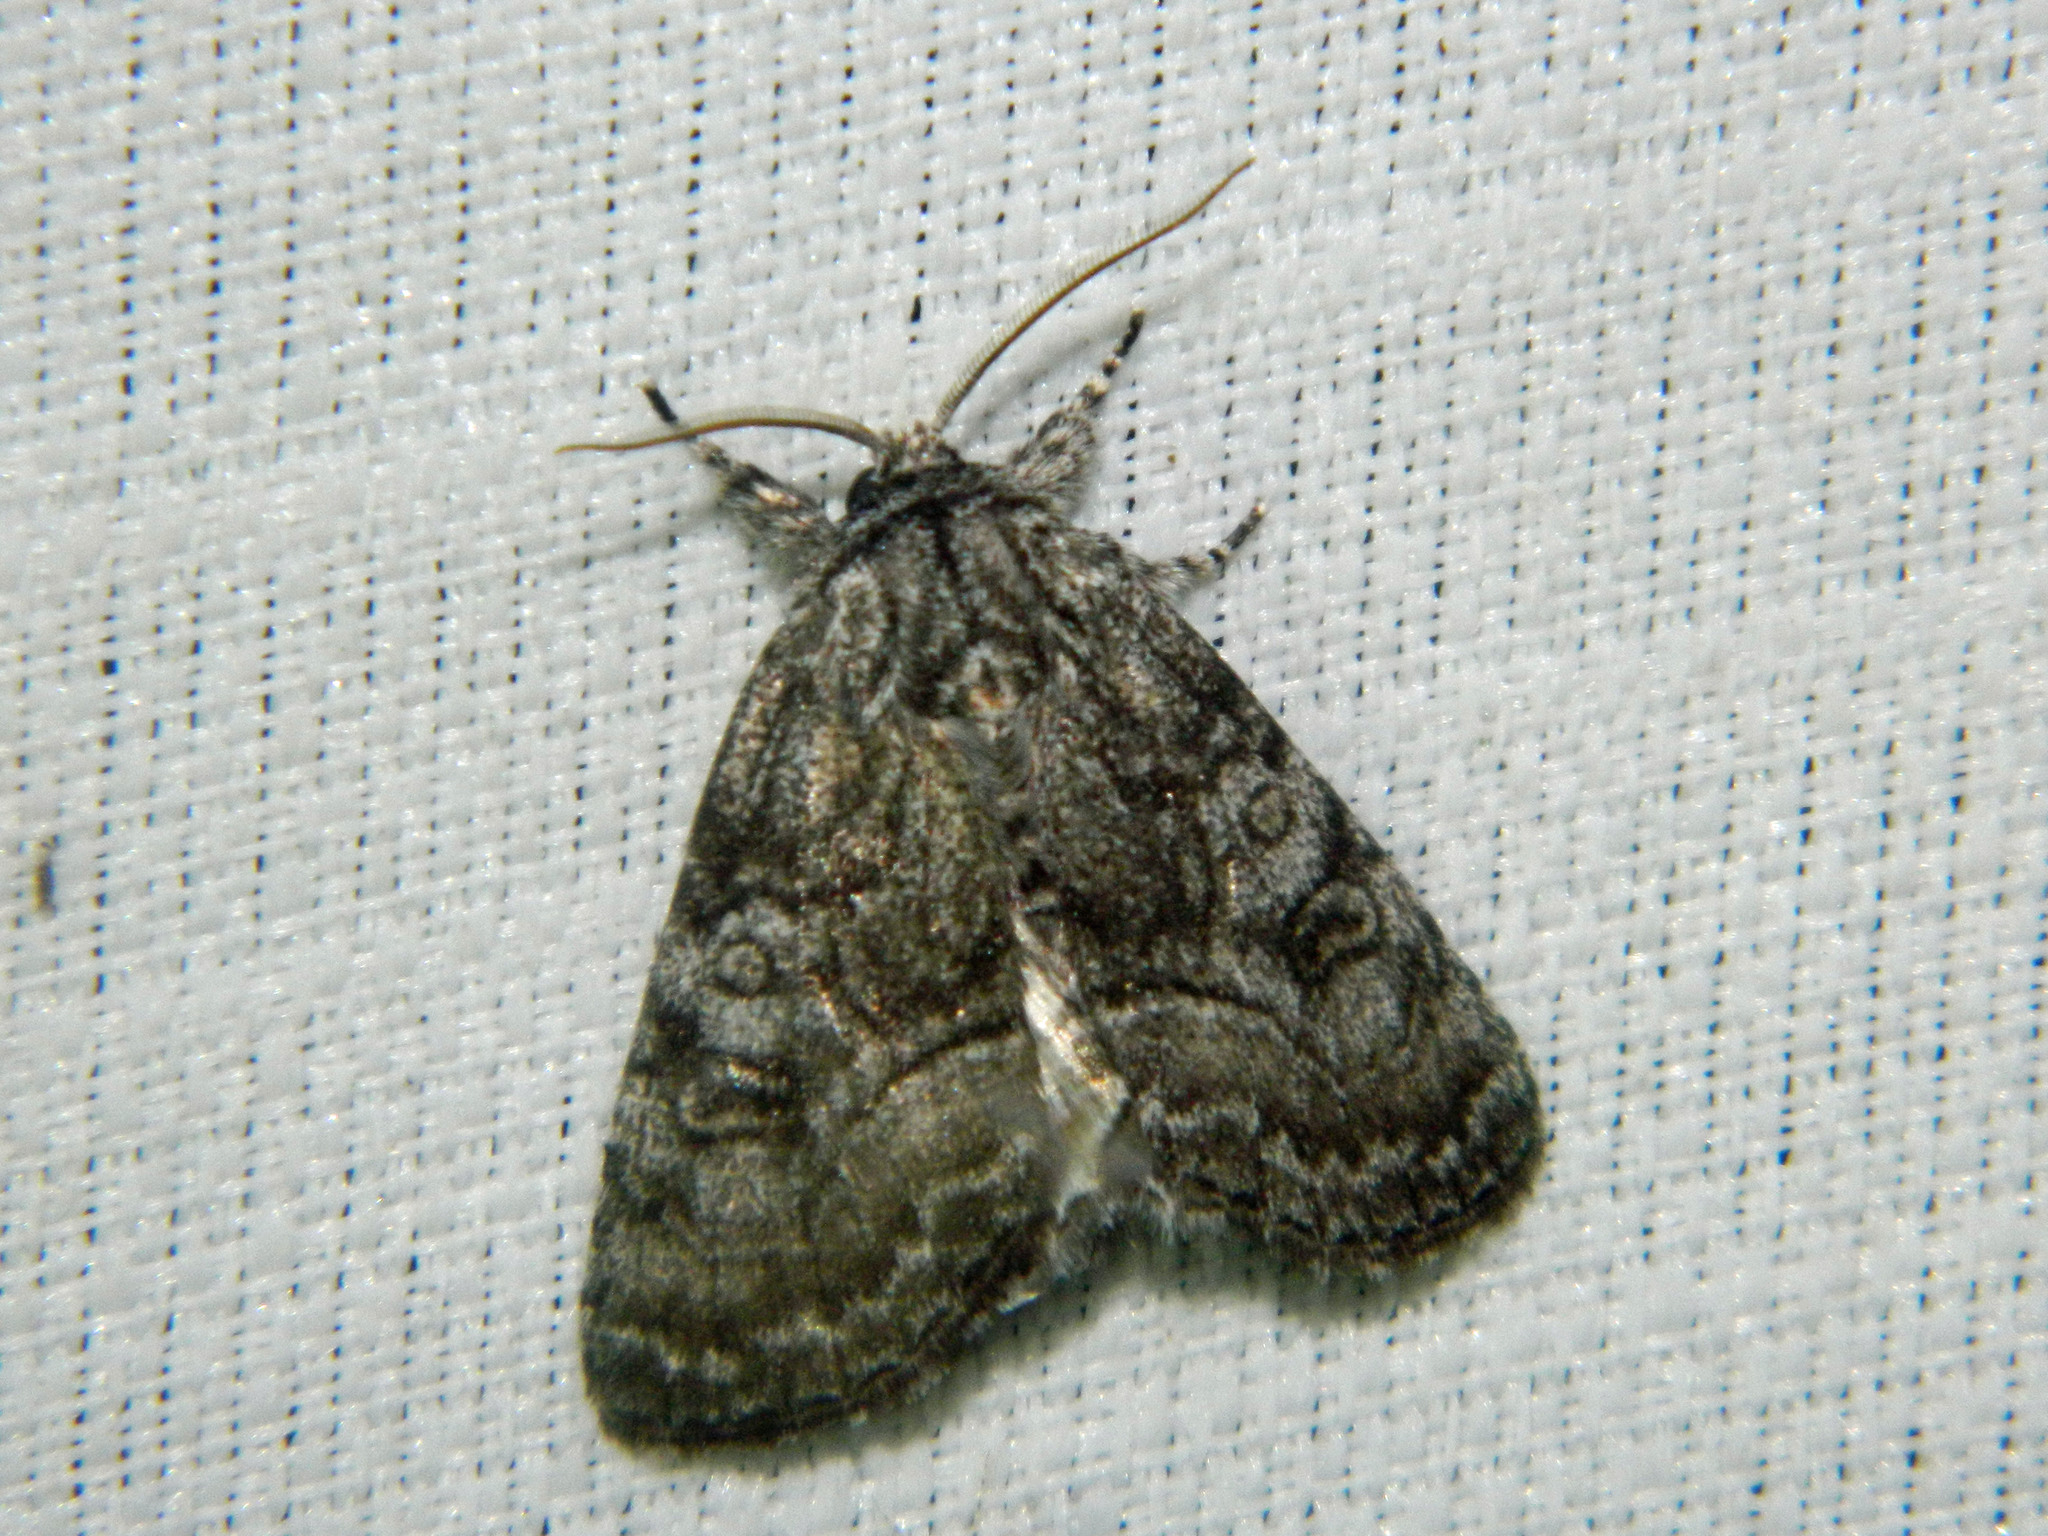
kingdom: Animalia
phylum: Arthropoda
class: Insecta
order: Lepidoptera
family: Noctuidae
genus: Raphia
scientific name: Raphia frater
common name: Brother
